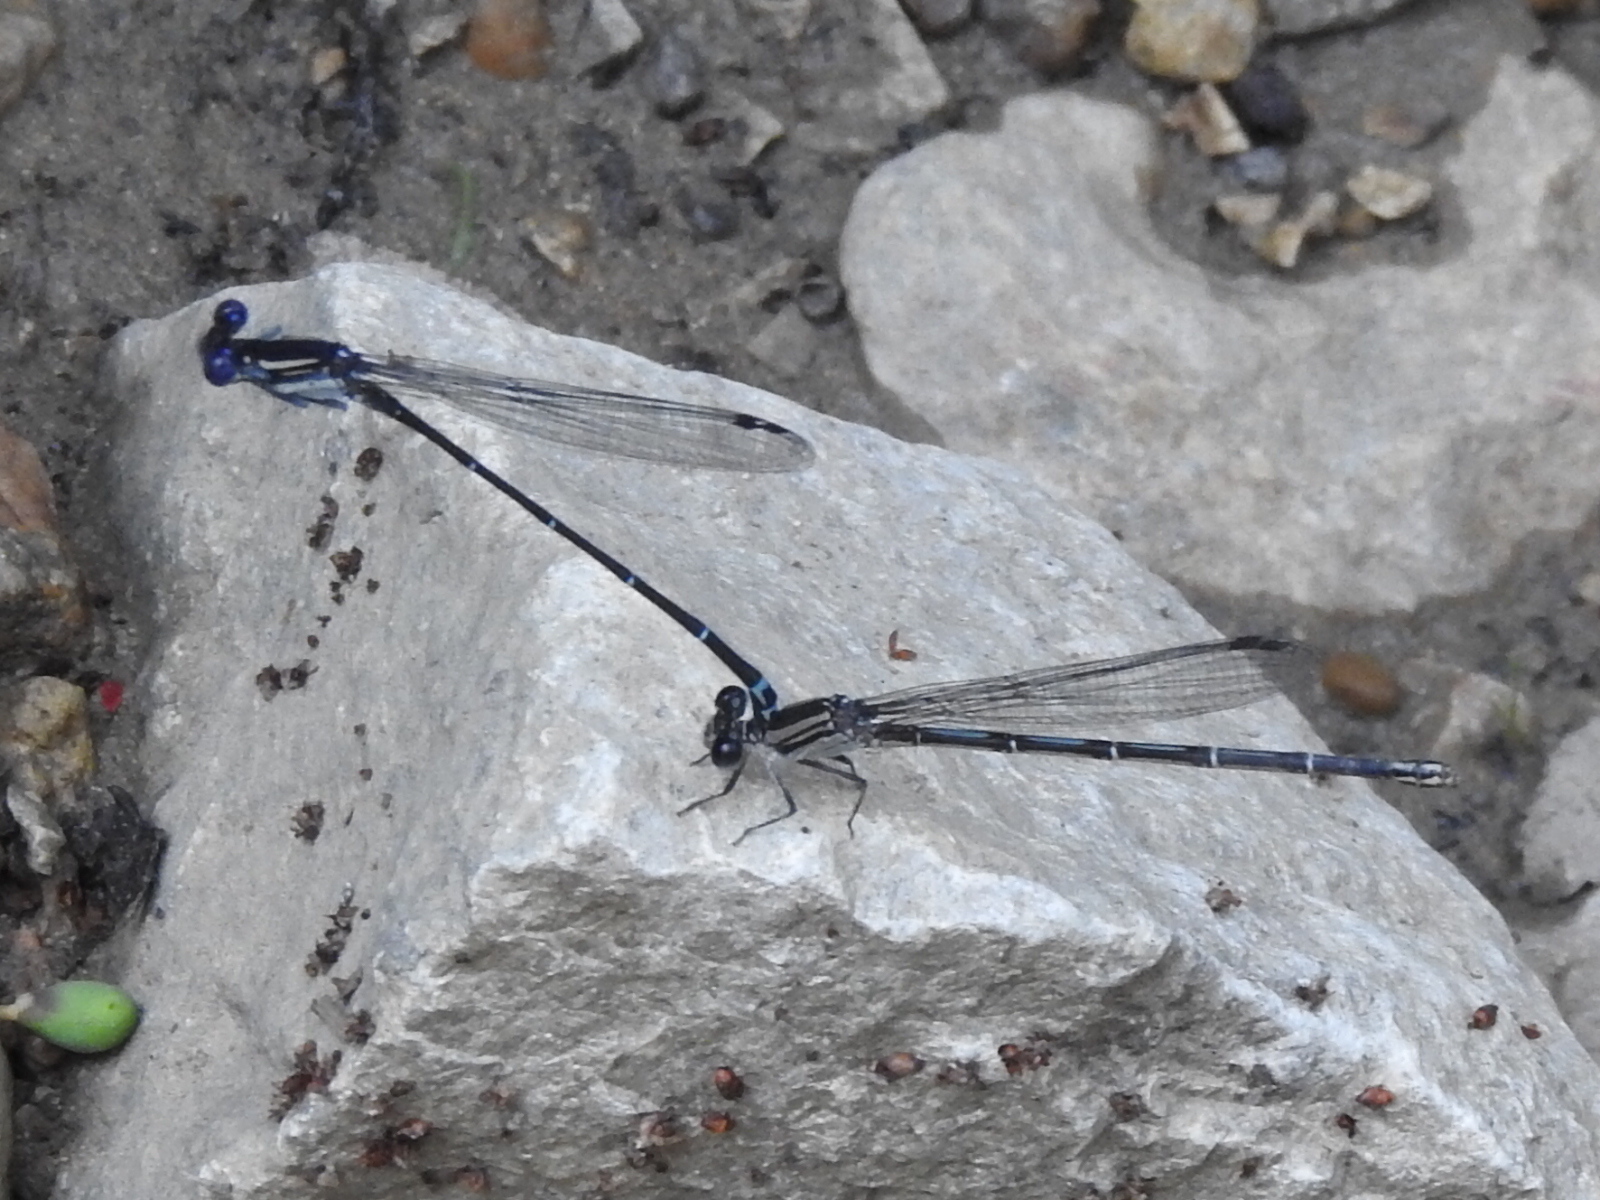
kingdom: Animalia
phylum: Arthropoda
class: Insecta
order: Odonata
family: Coenagrionidae
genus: Argia
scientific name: Argia translata
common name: Dusky dancer
